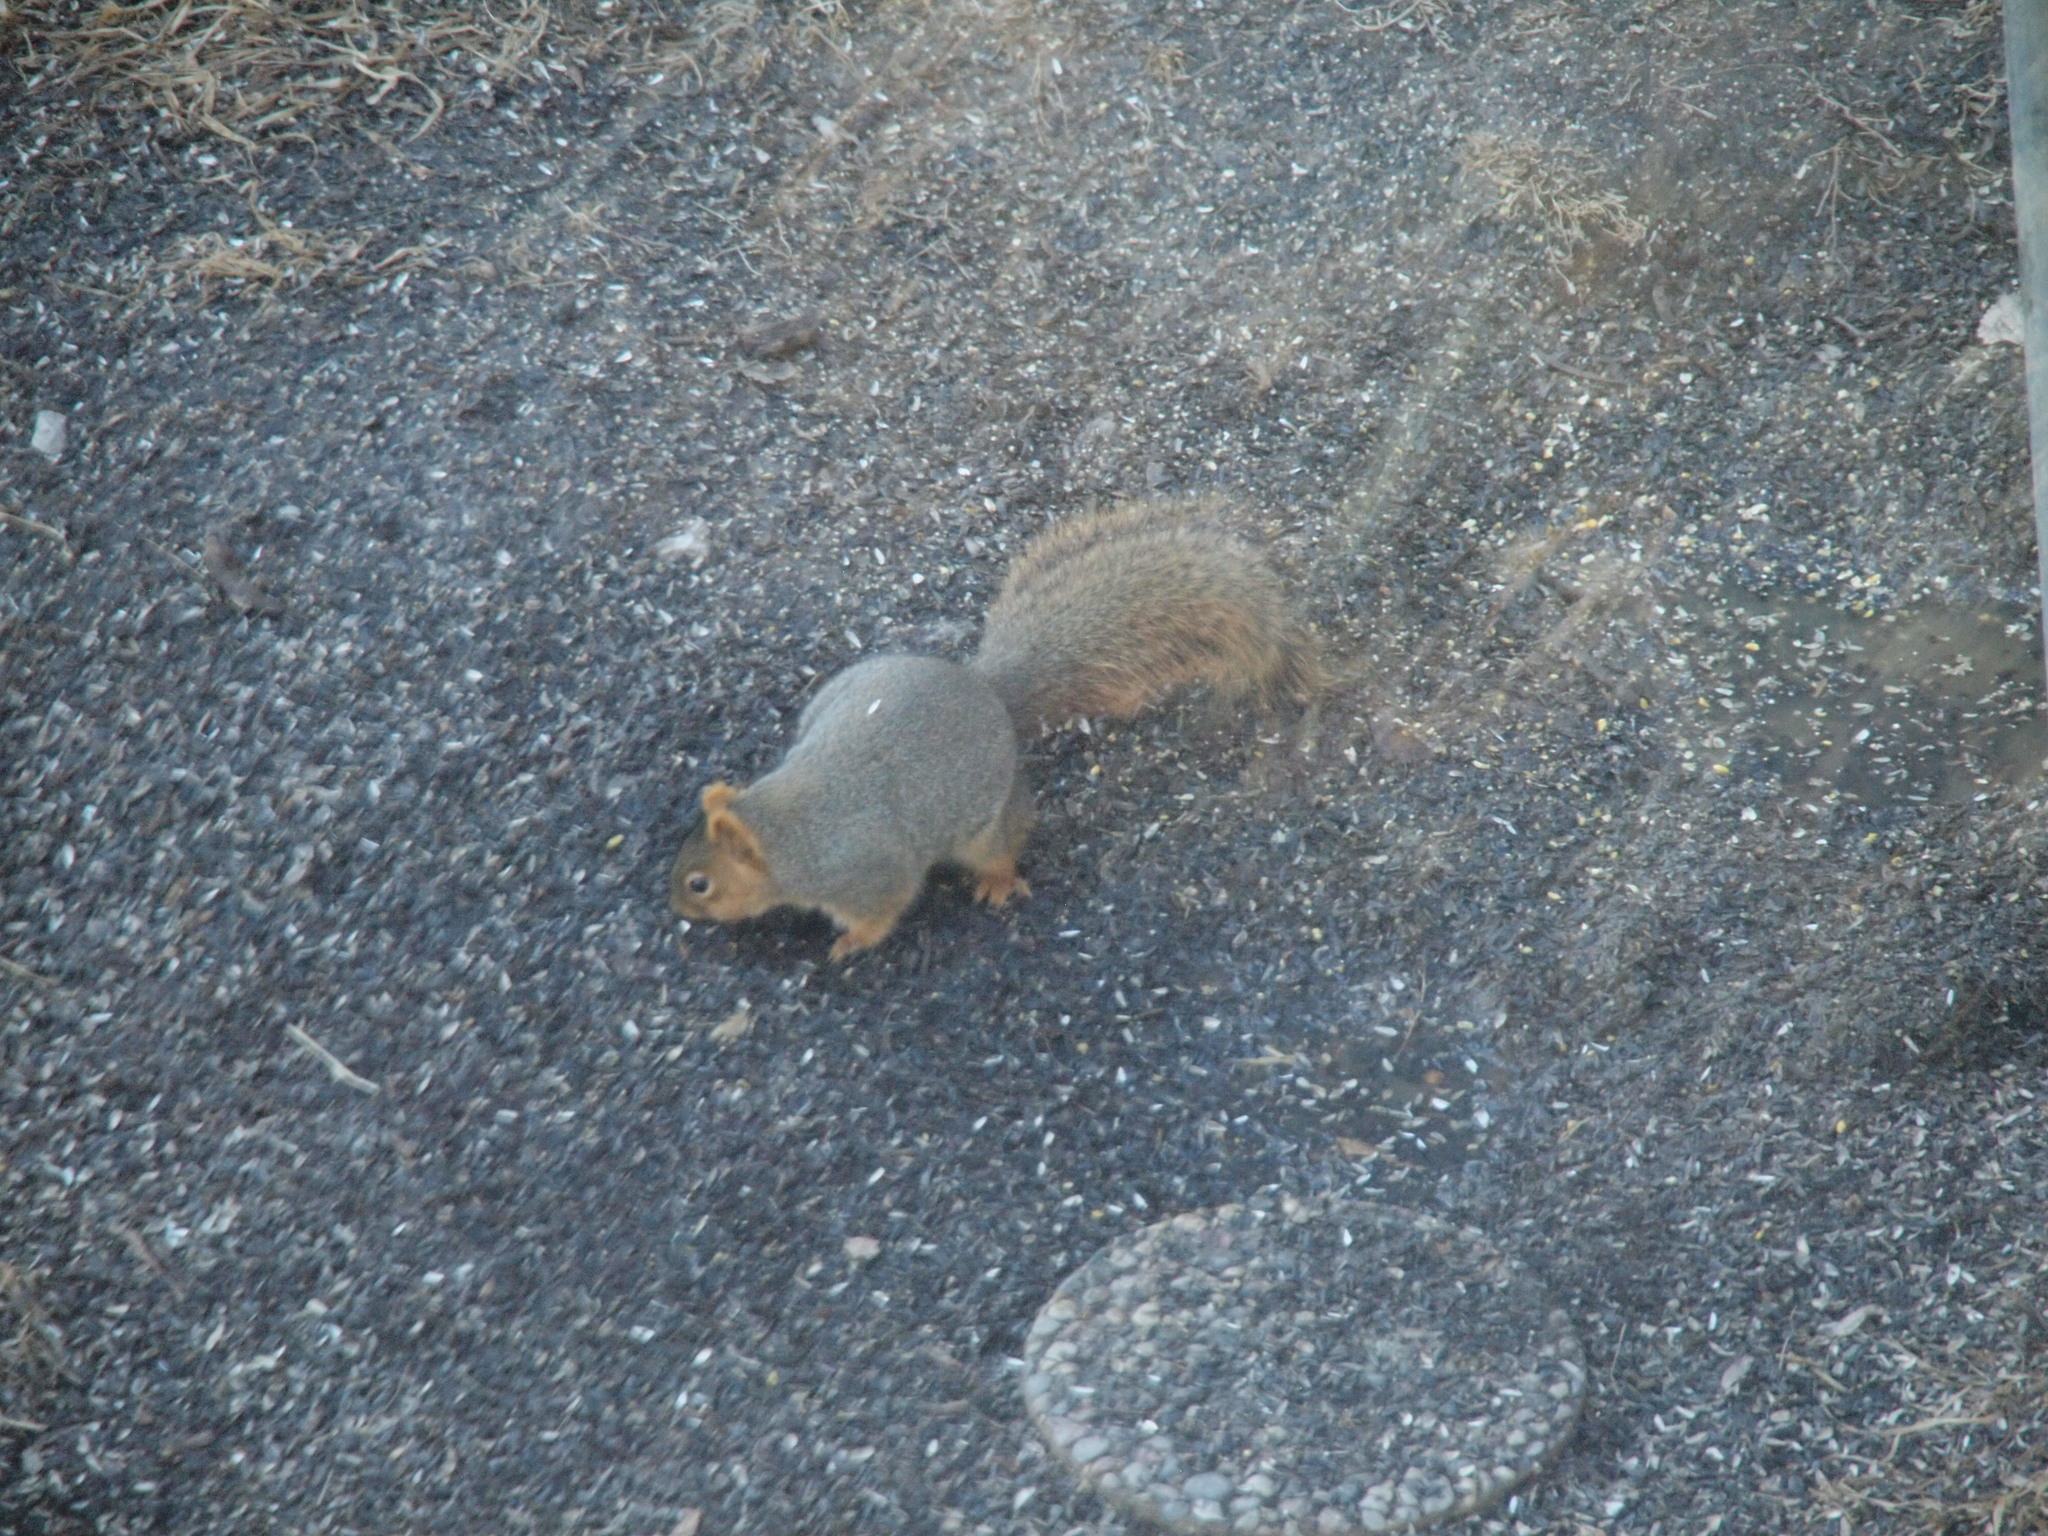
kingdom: Animalia
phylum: Chordata
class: Mammalia
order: Rodentia
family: Sciuridae
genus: Sciurus
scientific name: Sciurus niger
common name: Fox squirrel
